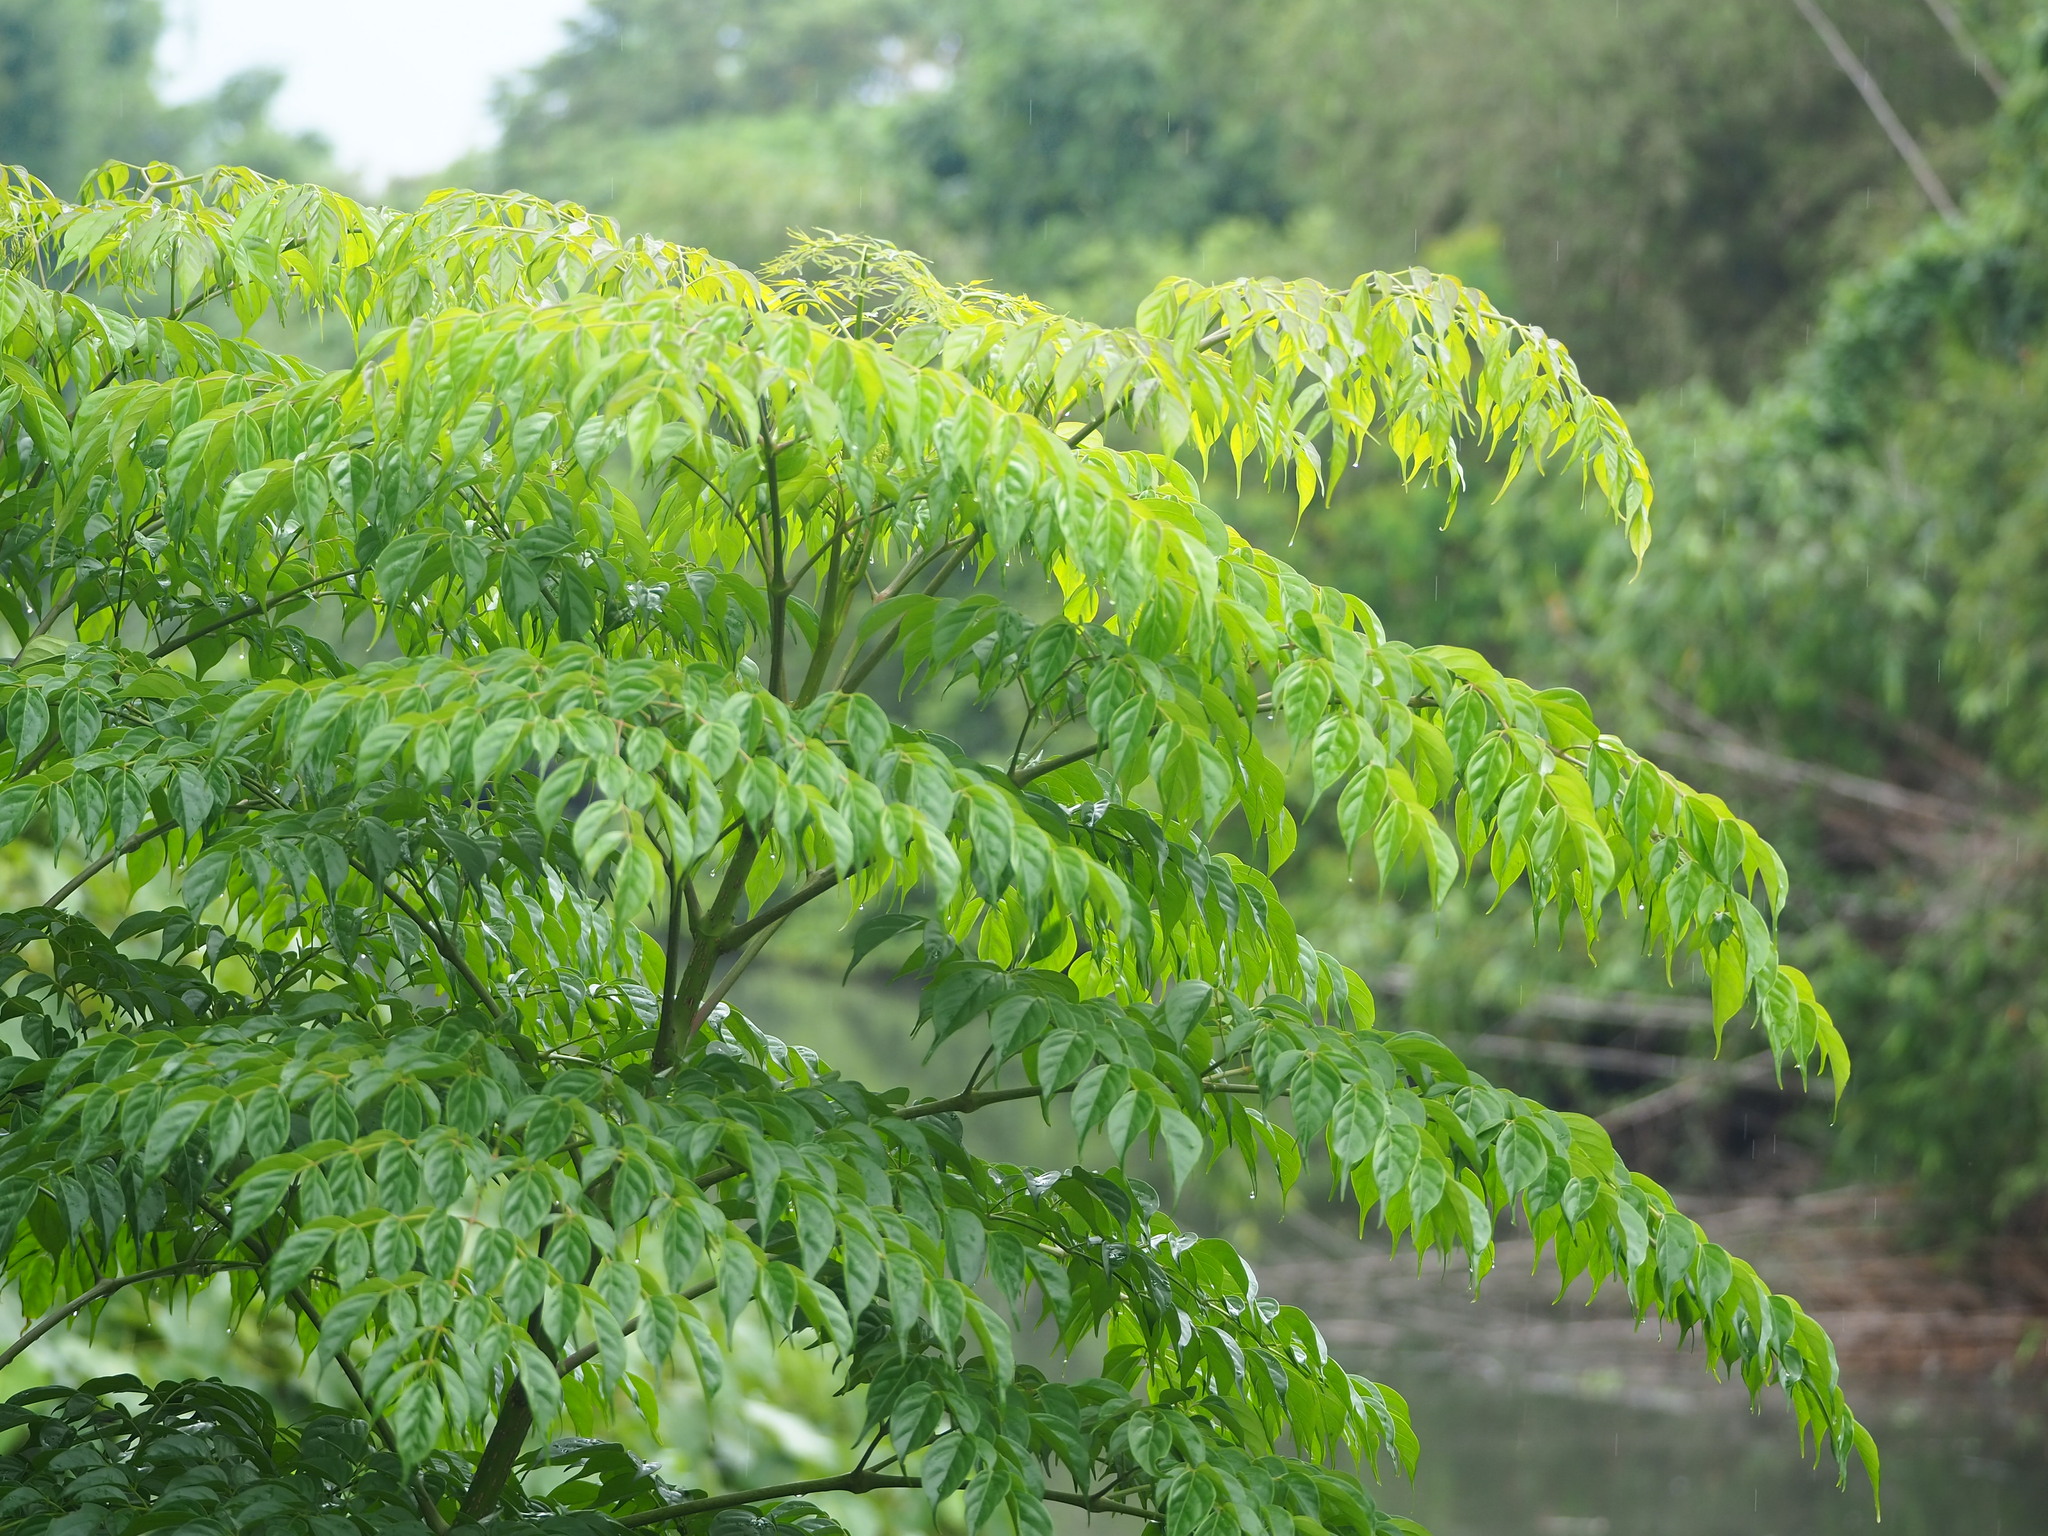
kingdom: Plantae
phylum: Tracheophyta
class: Magnoliopsida
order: Lamiales
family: Bignoniaceae
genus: Radermachera
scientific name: Radermachera sinica
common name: China doll plant
